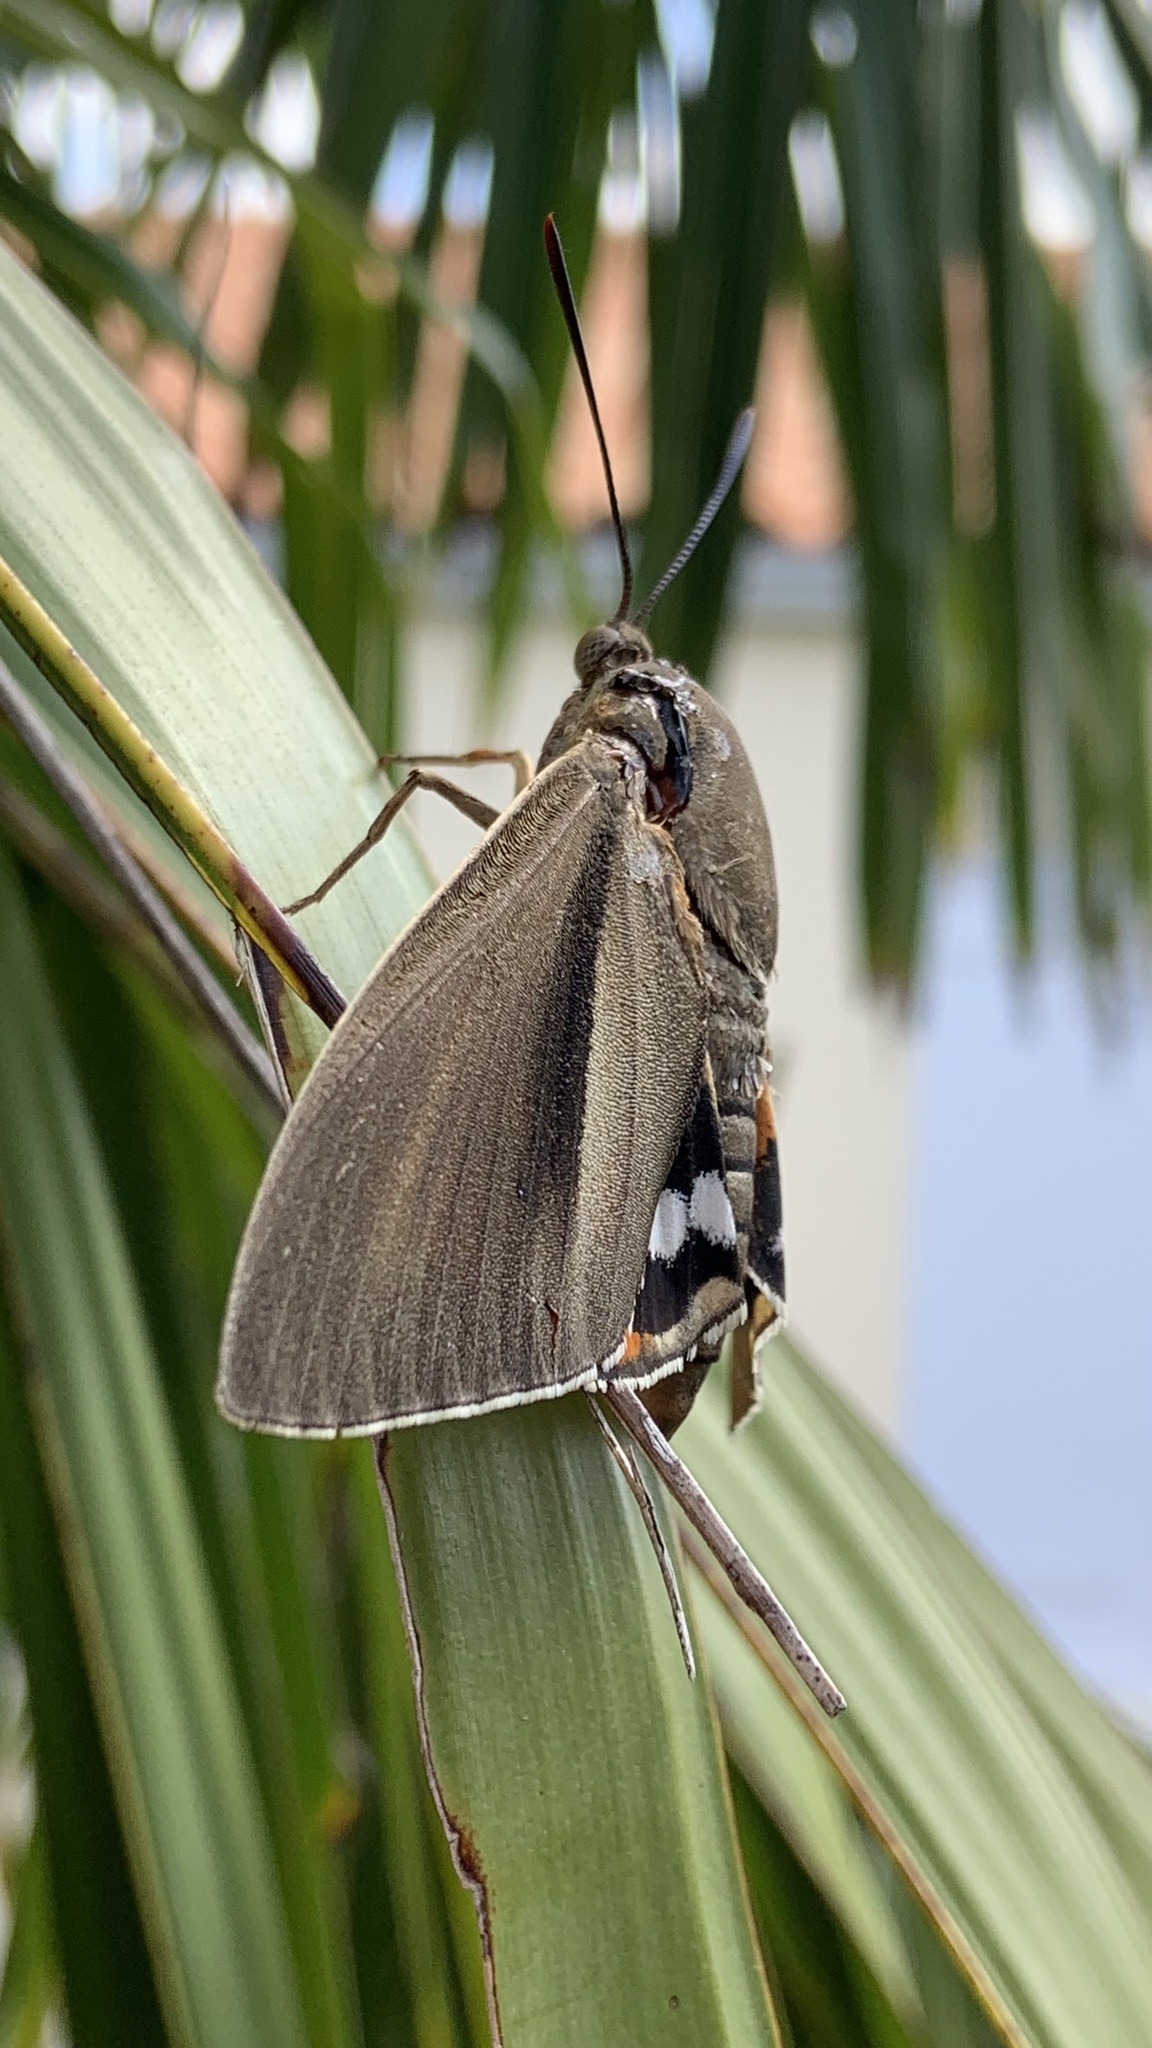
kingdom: Animalia
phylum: Arthropoda
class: Insecta
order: Lepidoptera
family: Castniidae
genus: Paysandisia
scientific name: Paysandisia archon
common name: Palm moth
